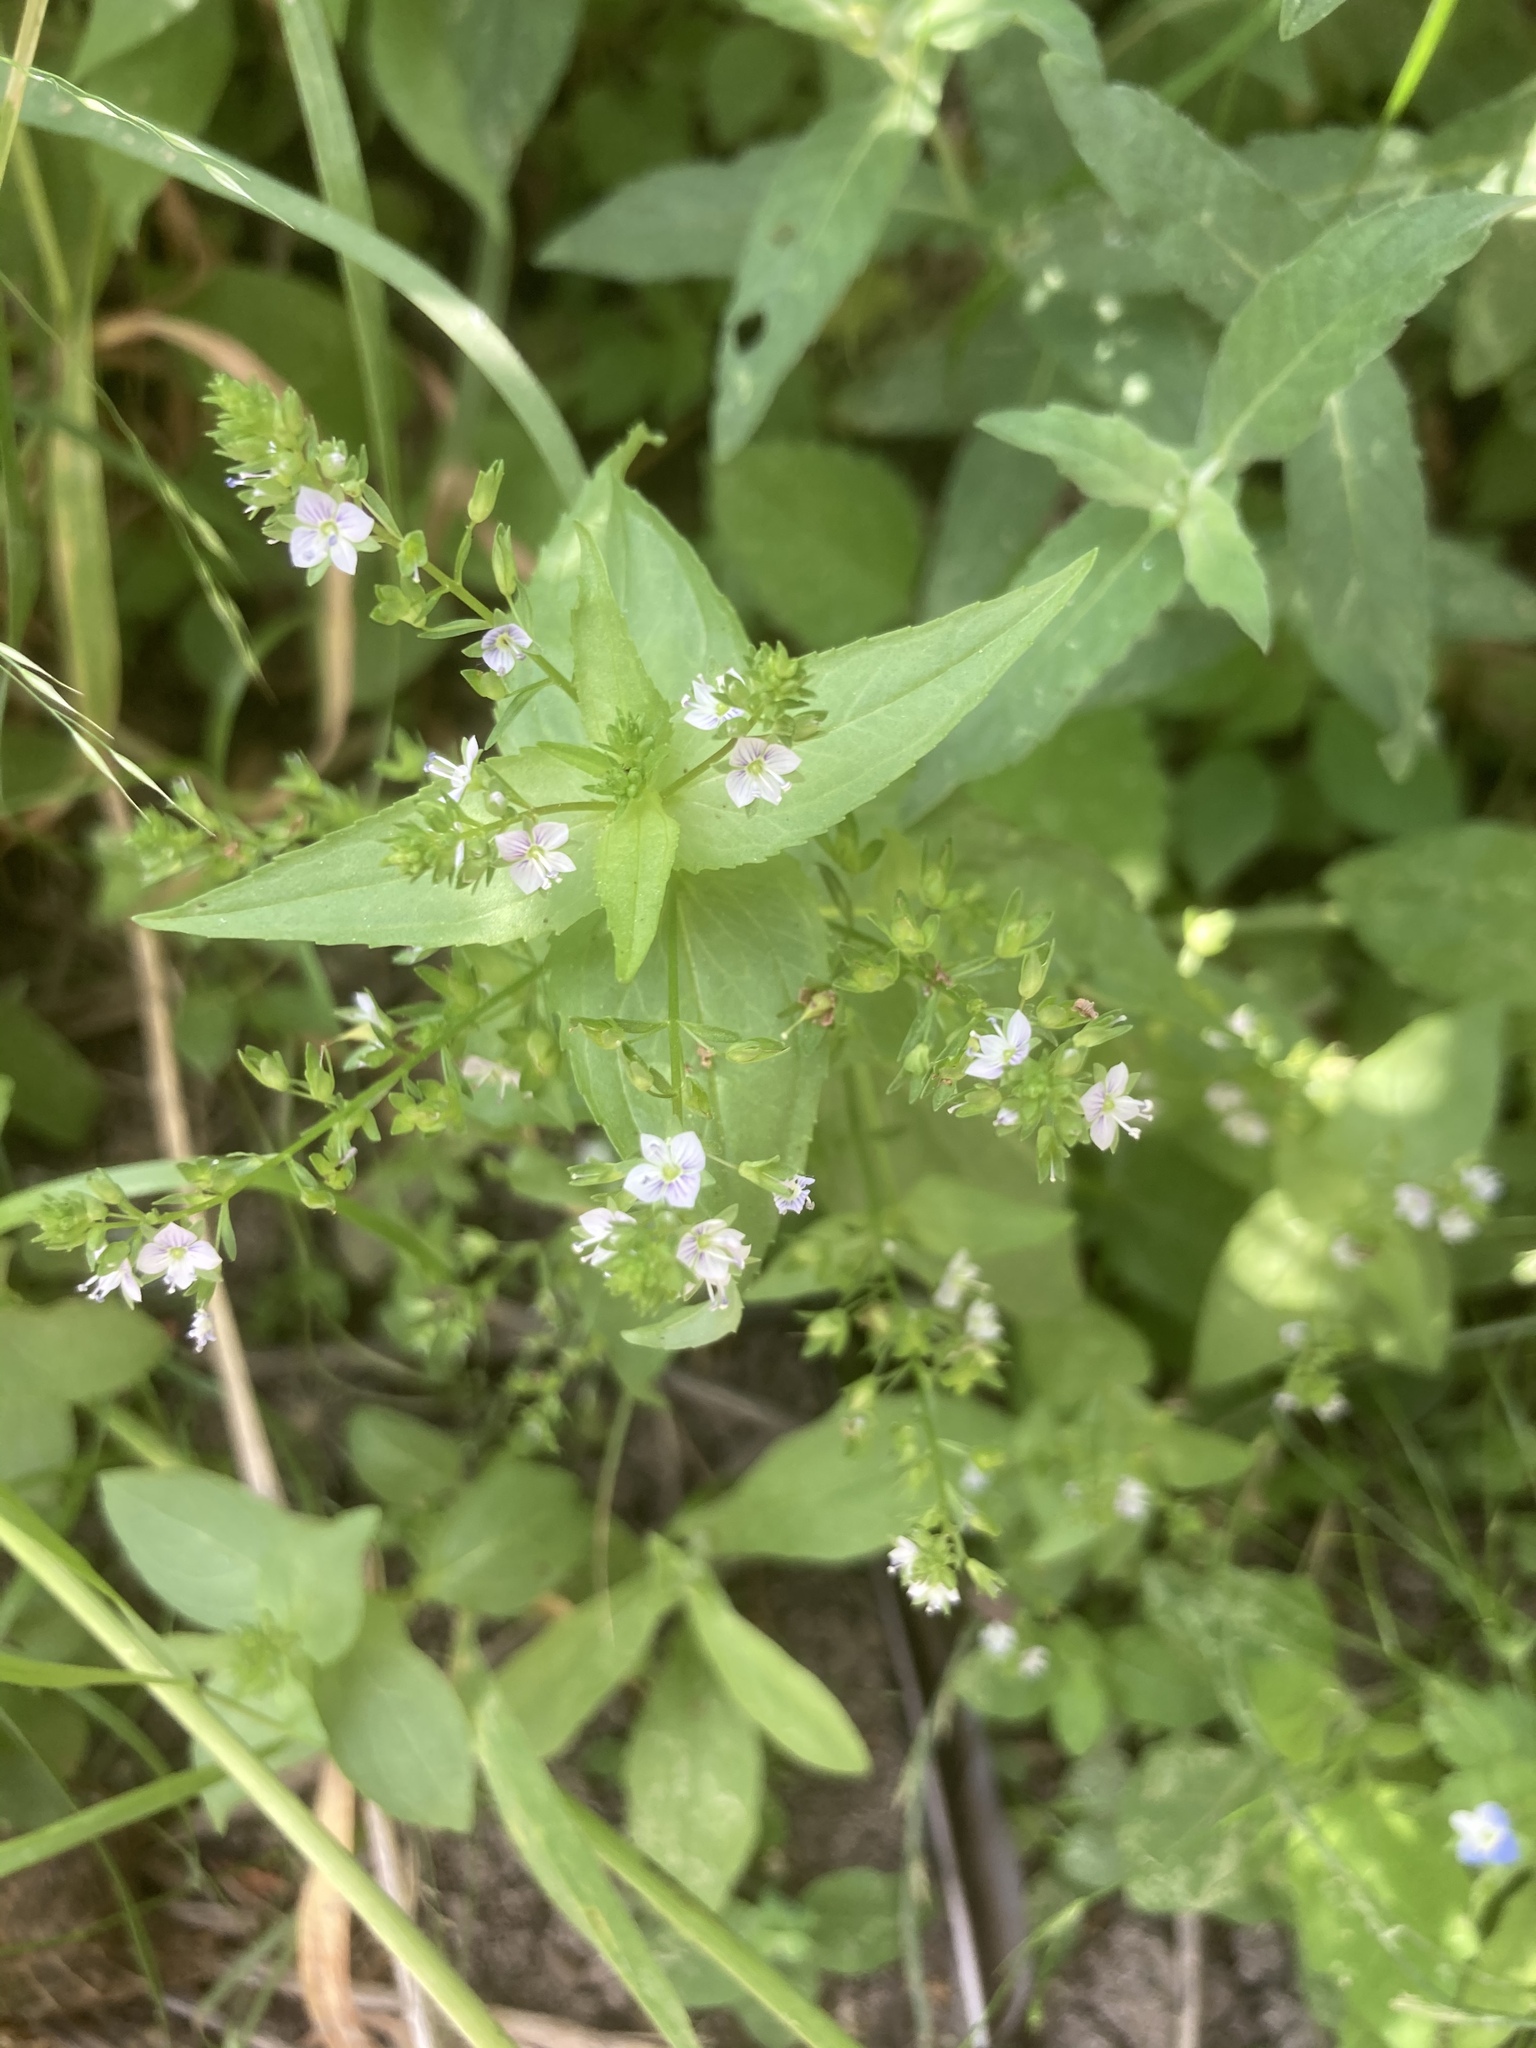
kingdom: Plantae
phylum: Tracheophyta
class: Magnoliopsida
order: Lamiales
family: Plantaginaceae
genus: Veronica
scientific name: Veronica anagallis-aquatica
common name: Water speedwell
